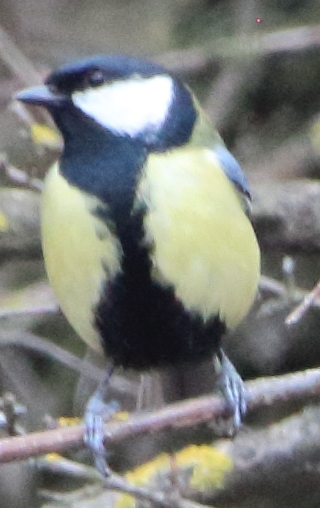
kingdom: Animalia
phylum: Chordata
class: Aves
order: Passeriformes
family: Paridae
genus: Parus
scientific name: Parus major
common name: Great tit
